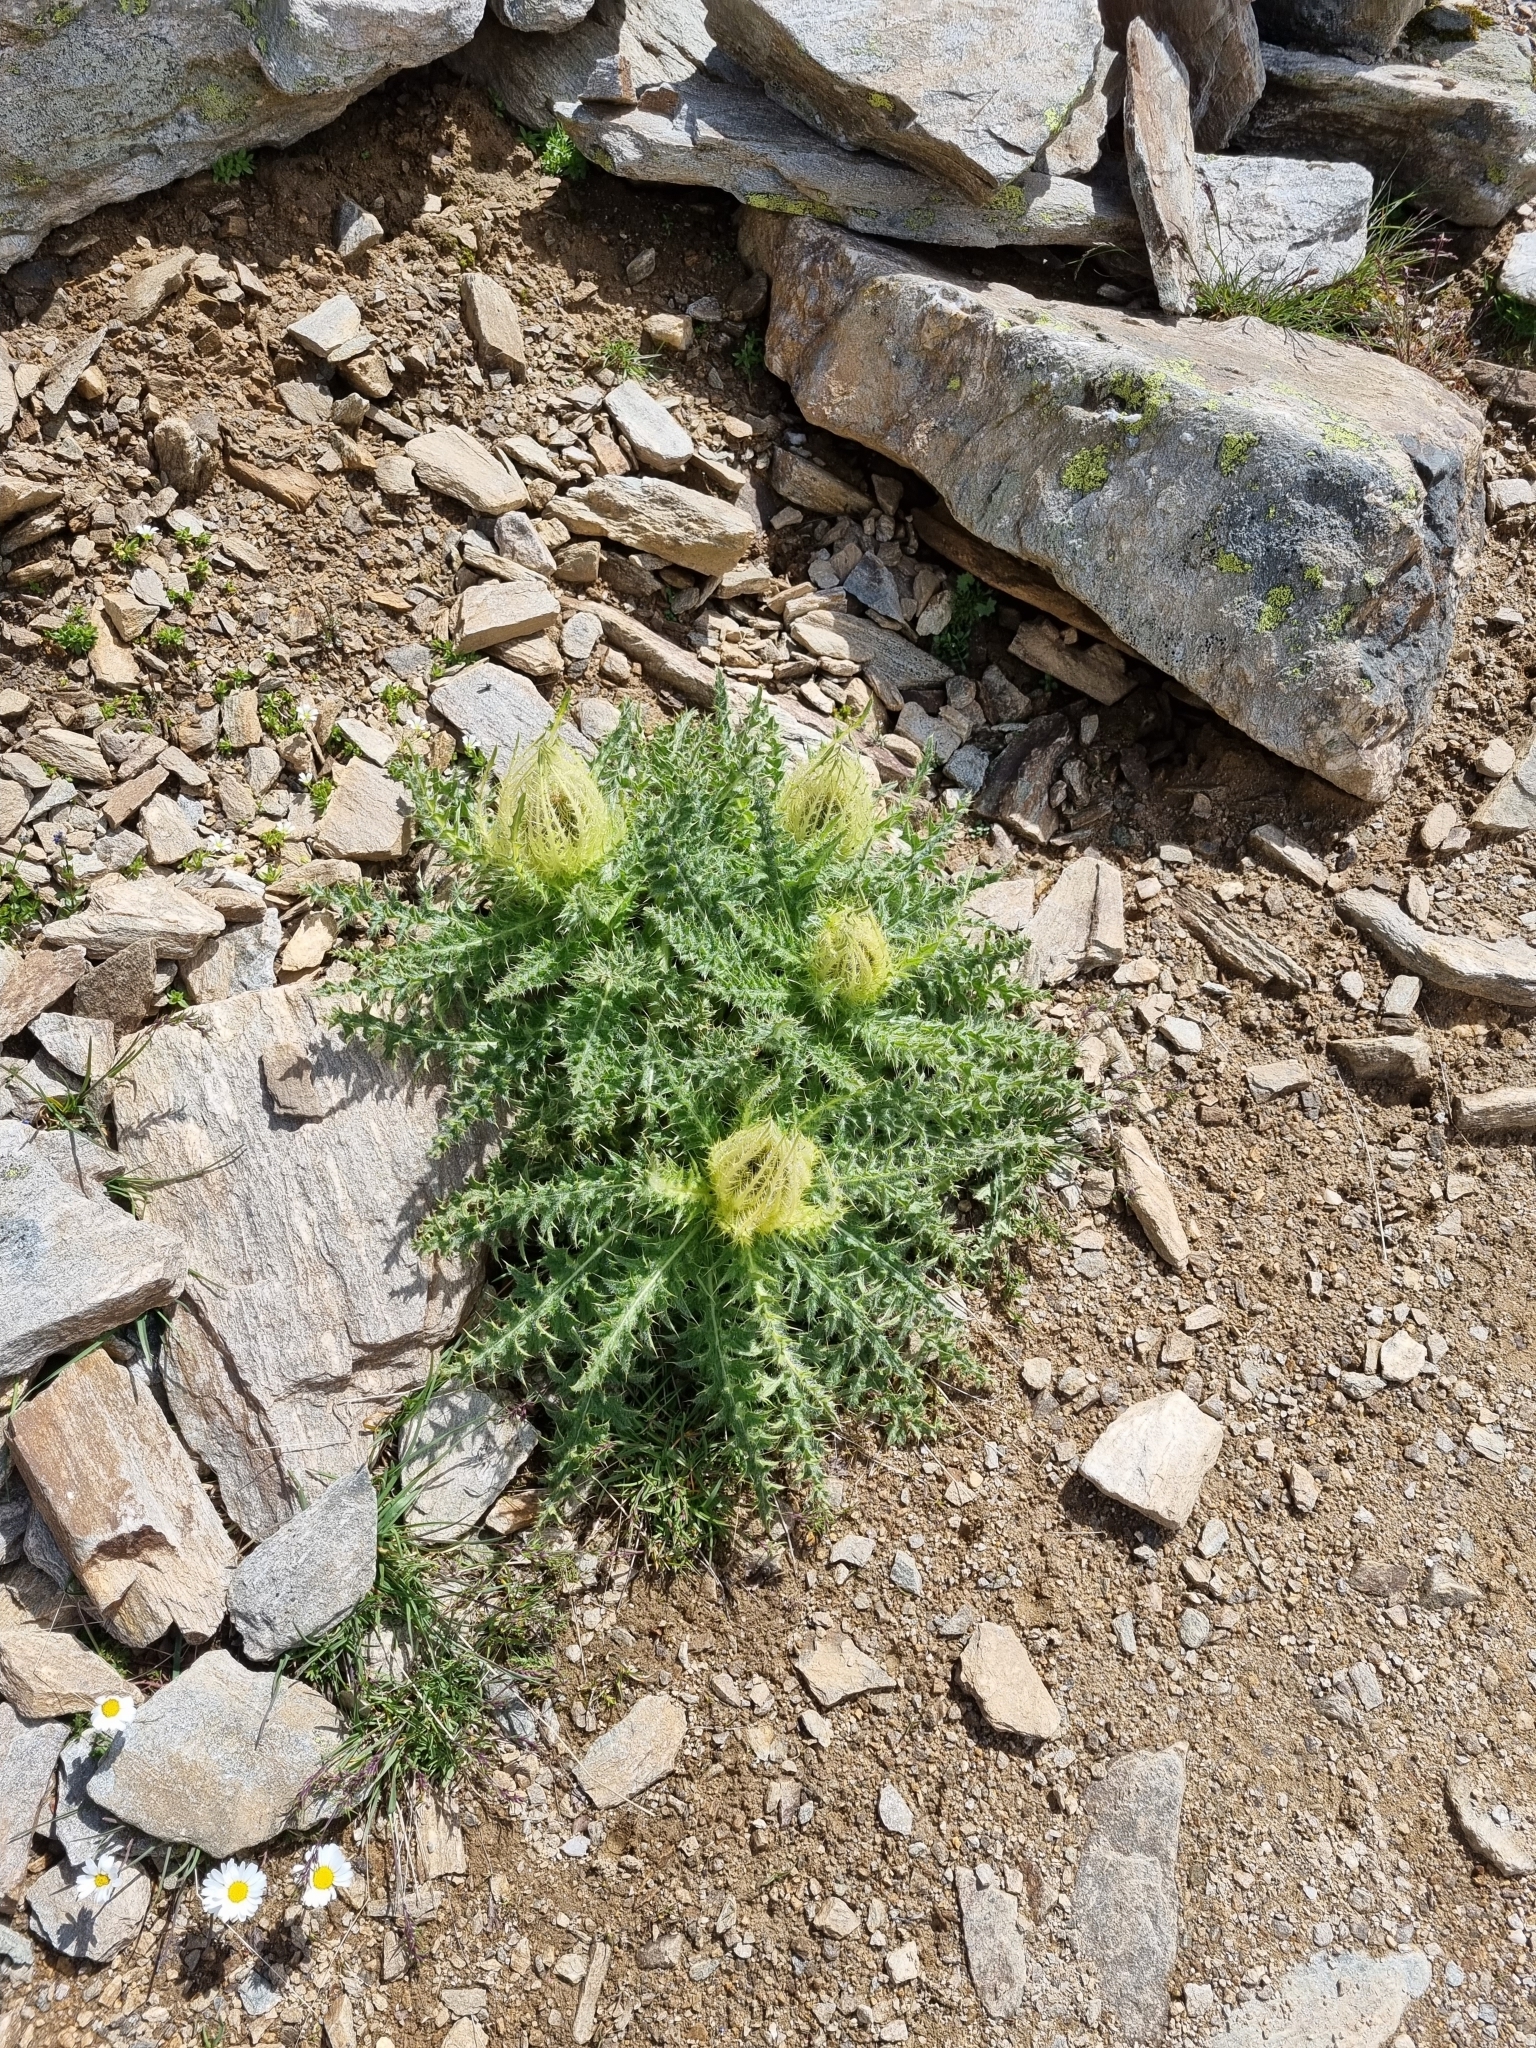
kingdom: Plantae
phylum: Tracheophyta
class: Magnoliopsida
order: Asterales
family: Asteraceae
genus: Cirsium
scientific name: Cirsium spinosissimum
